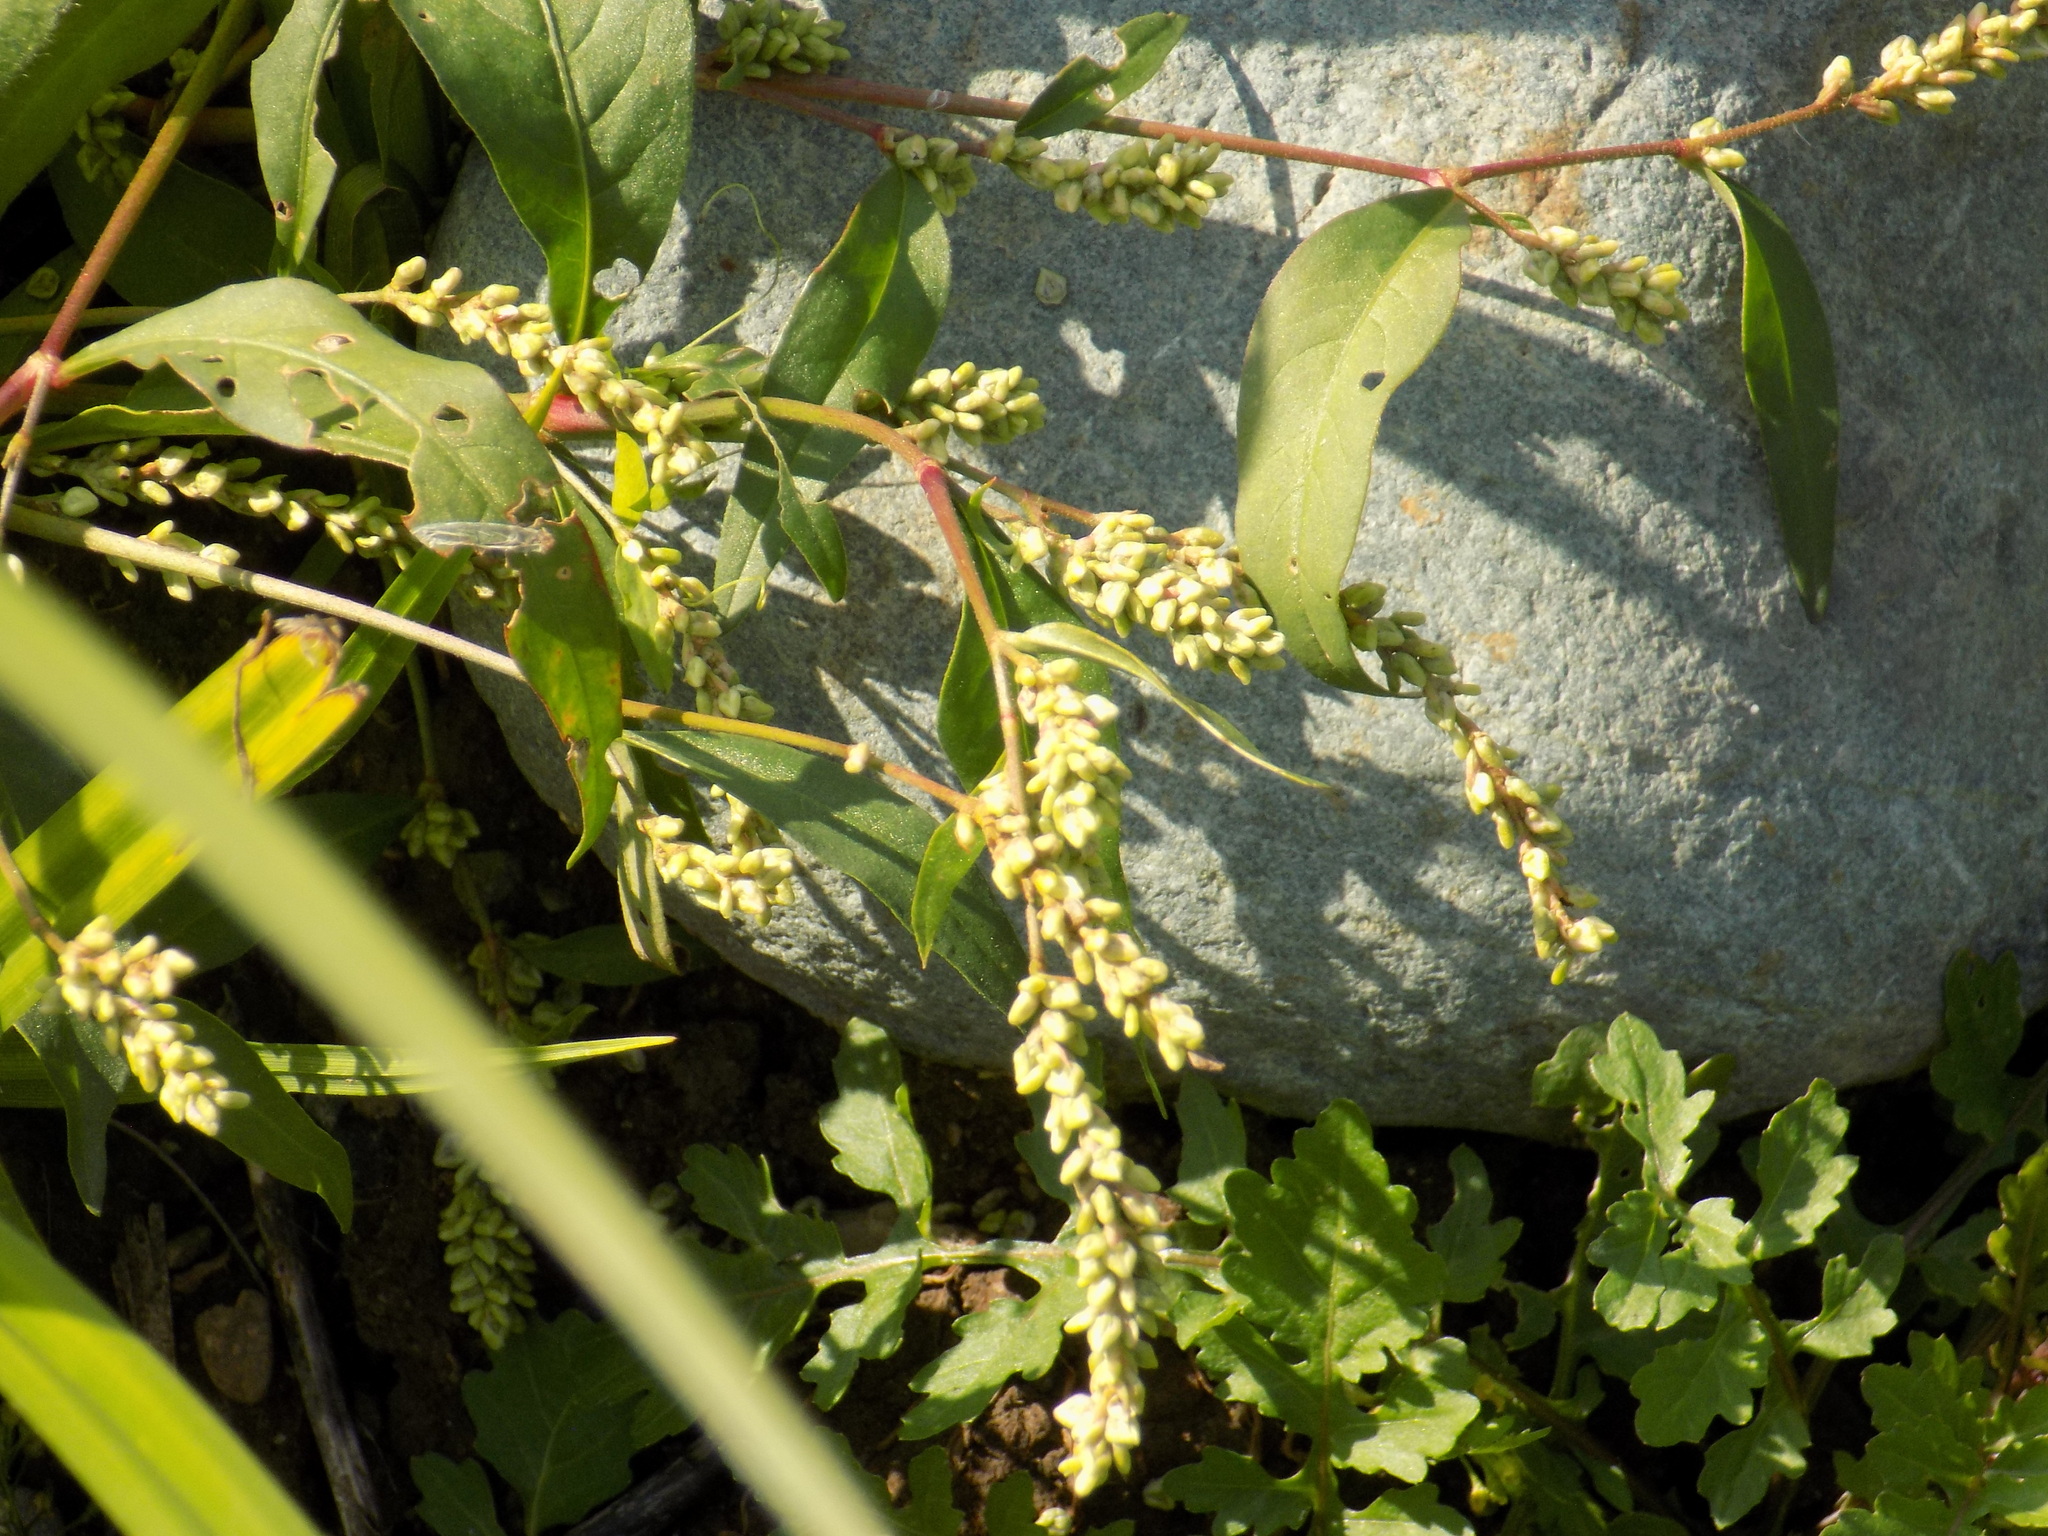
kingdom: Plantae
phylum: Tracheophyta
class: Magnoliopsida
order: Caryophyllales
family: Polygonaceae
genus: Persicaria
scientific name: Persicaria lapathifolia
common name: Curlytop knotweed
